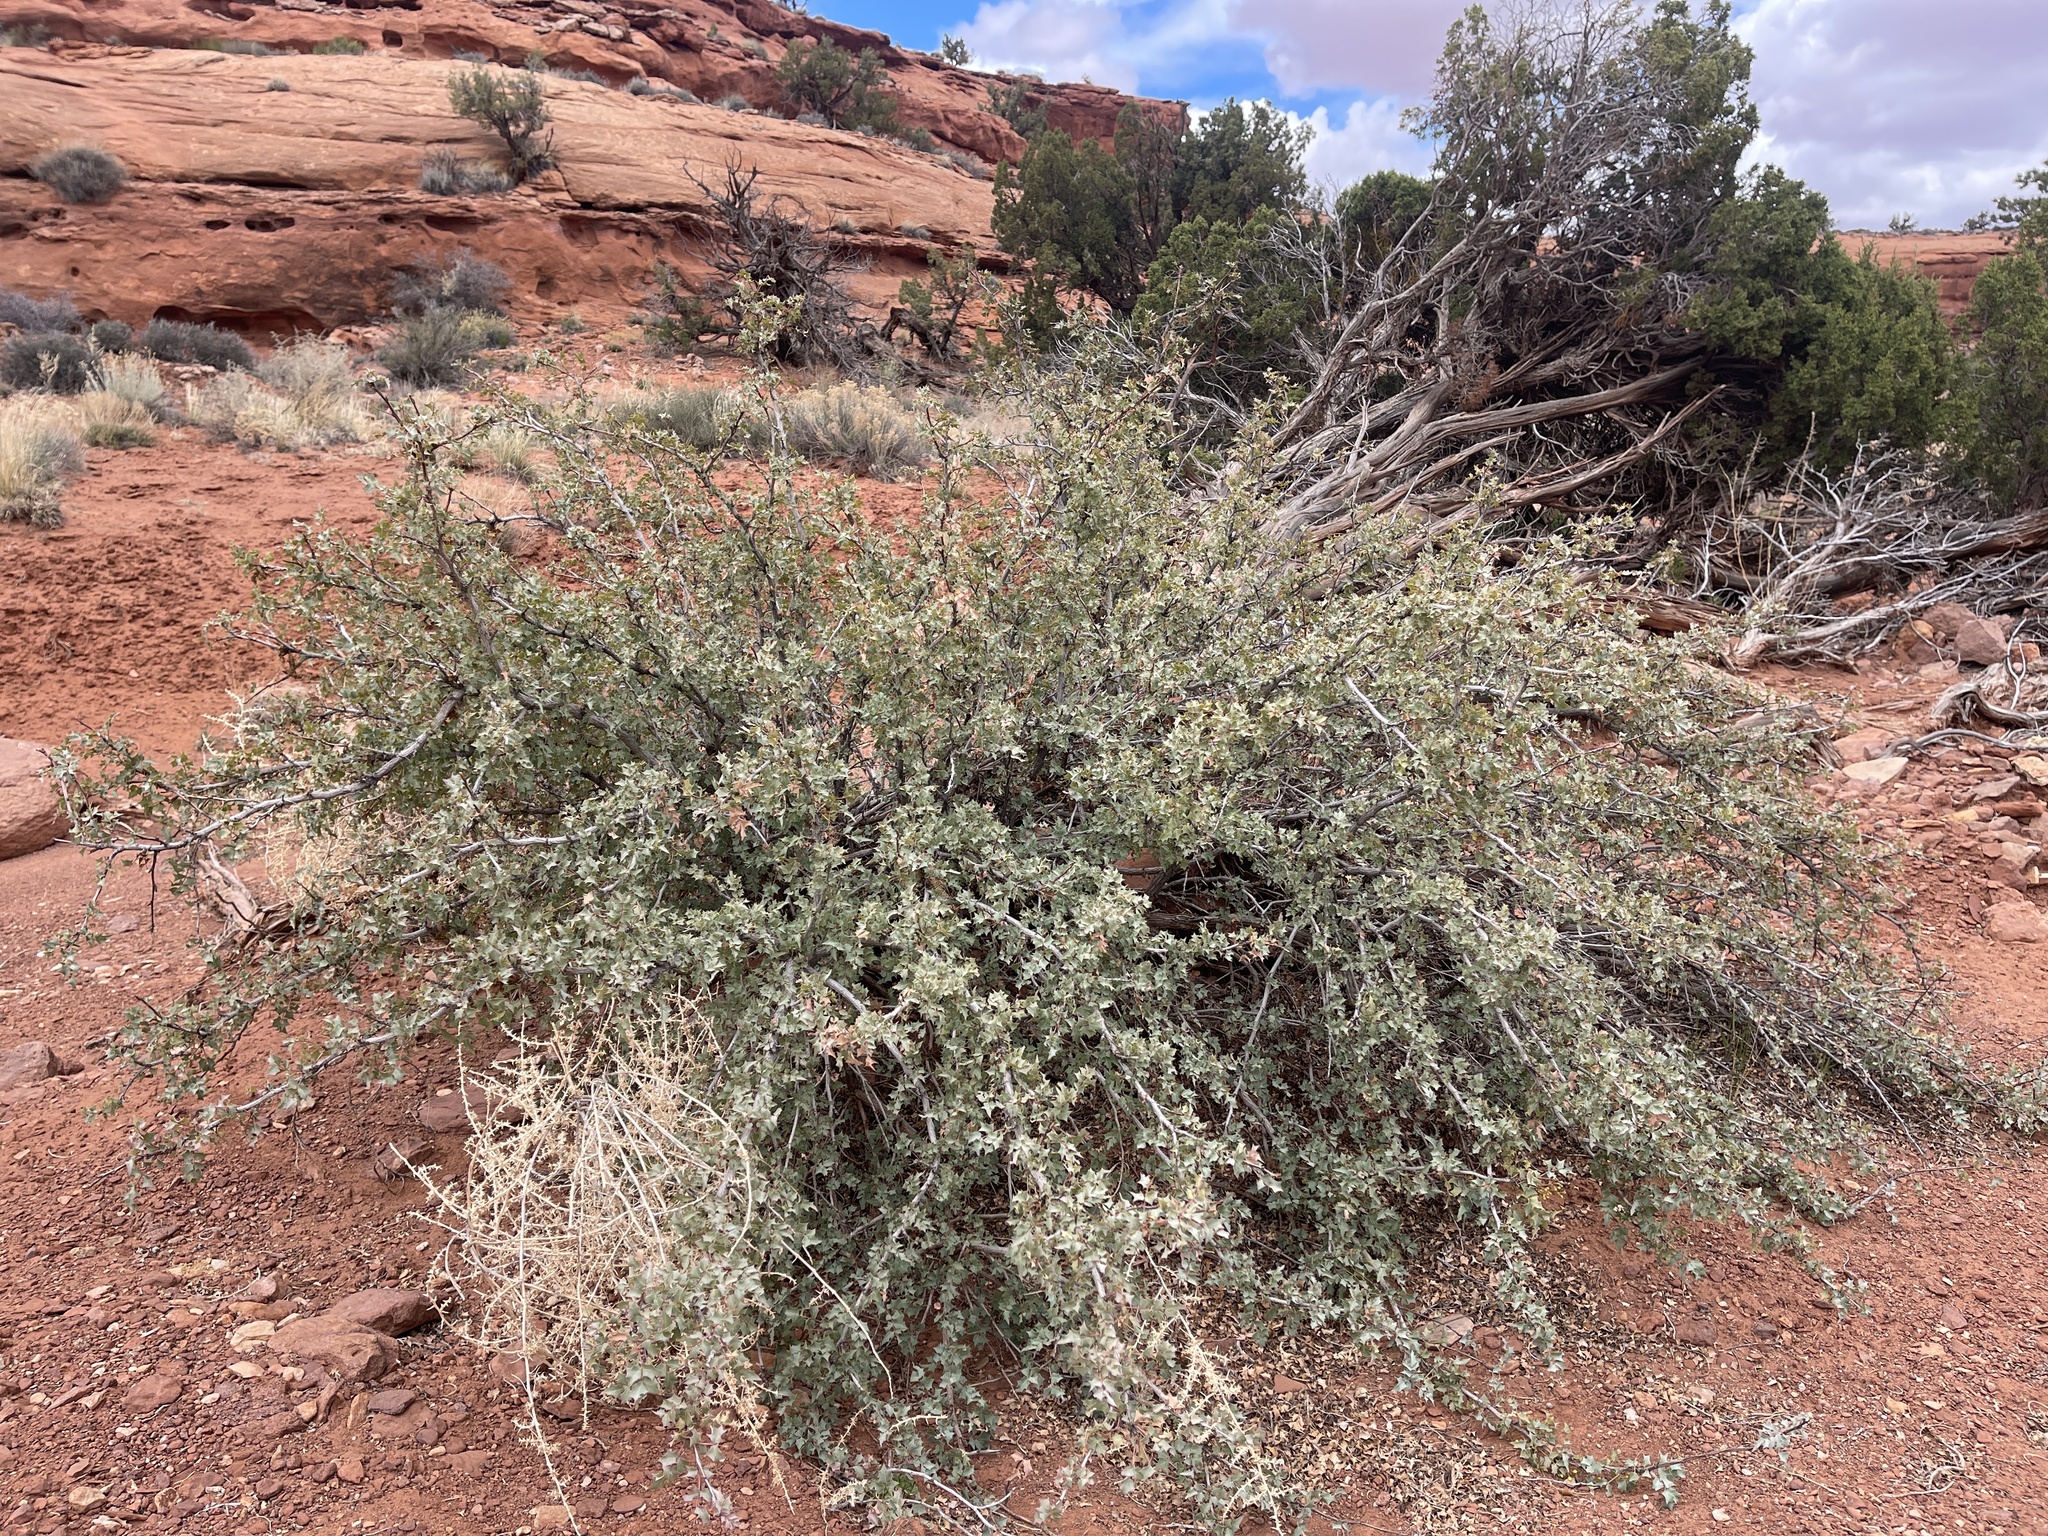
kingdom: Plantae
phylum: Tracheophyta
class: Magnoliopsida
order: Ranunculales
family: Berberidaceae
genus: Alloberberis
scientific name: Alloberberis fremontii
